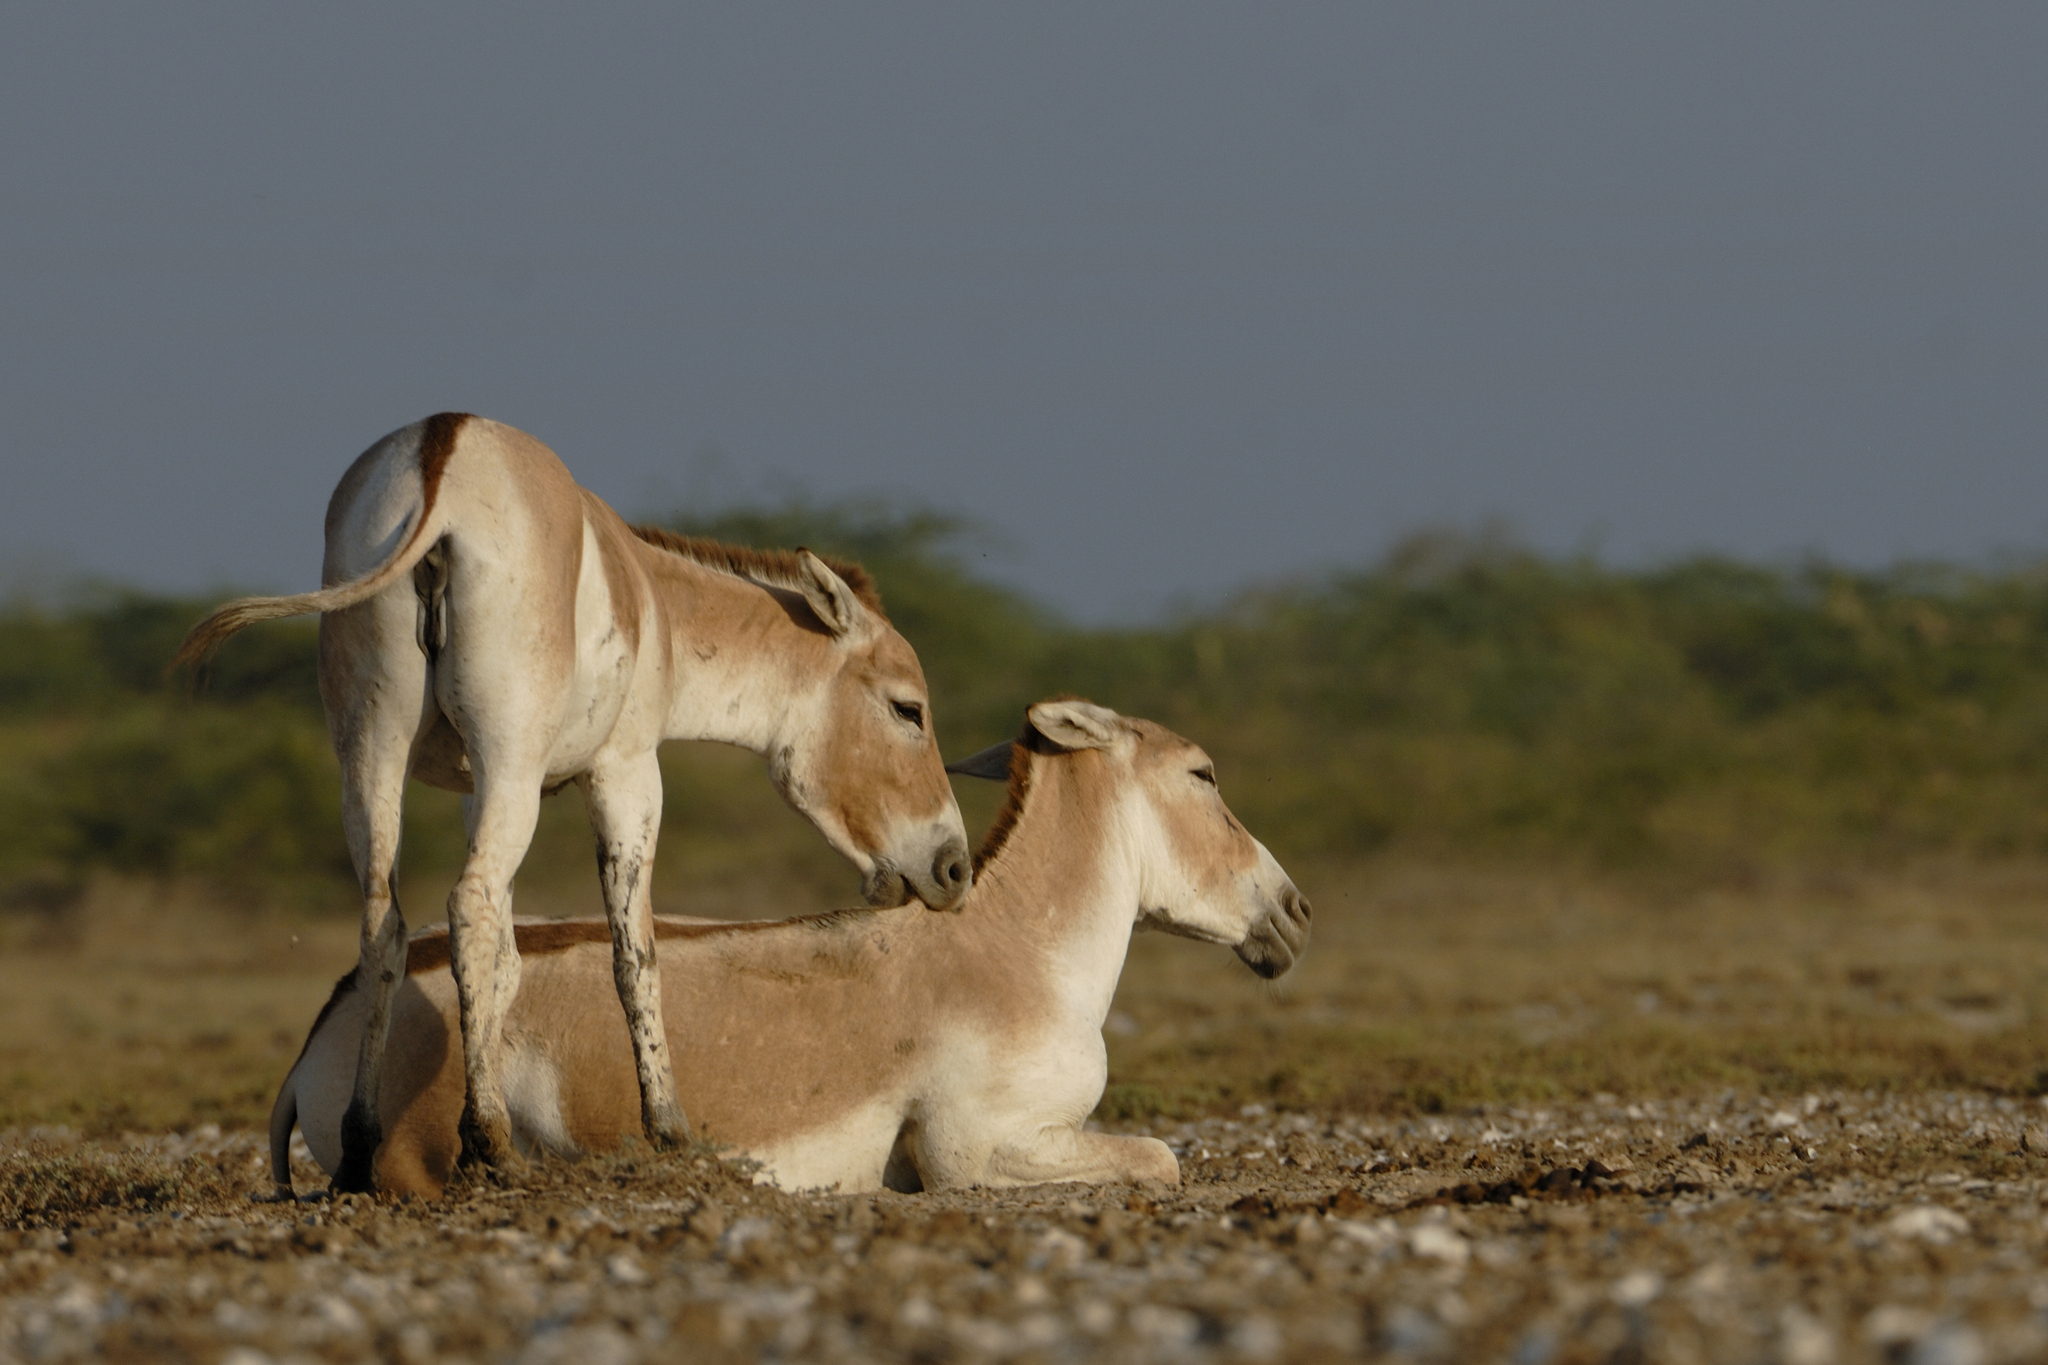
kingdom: Animalia
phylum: Chordata
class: Mammalia
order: Perissodactyla
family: Equidae
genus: Equus
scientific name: Equus khur
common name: Indian wild ass
